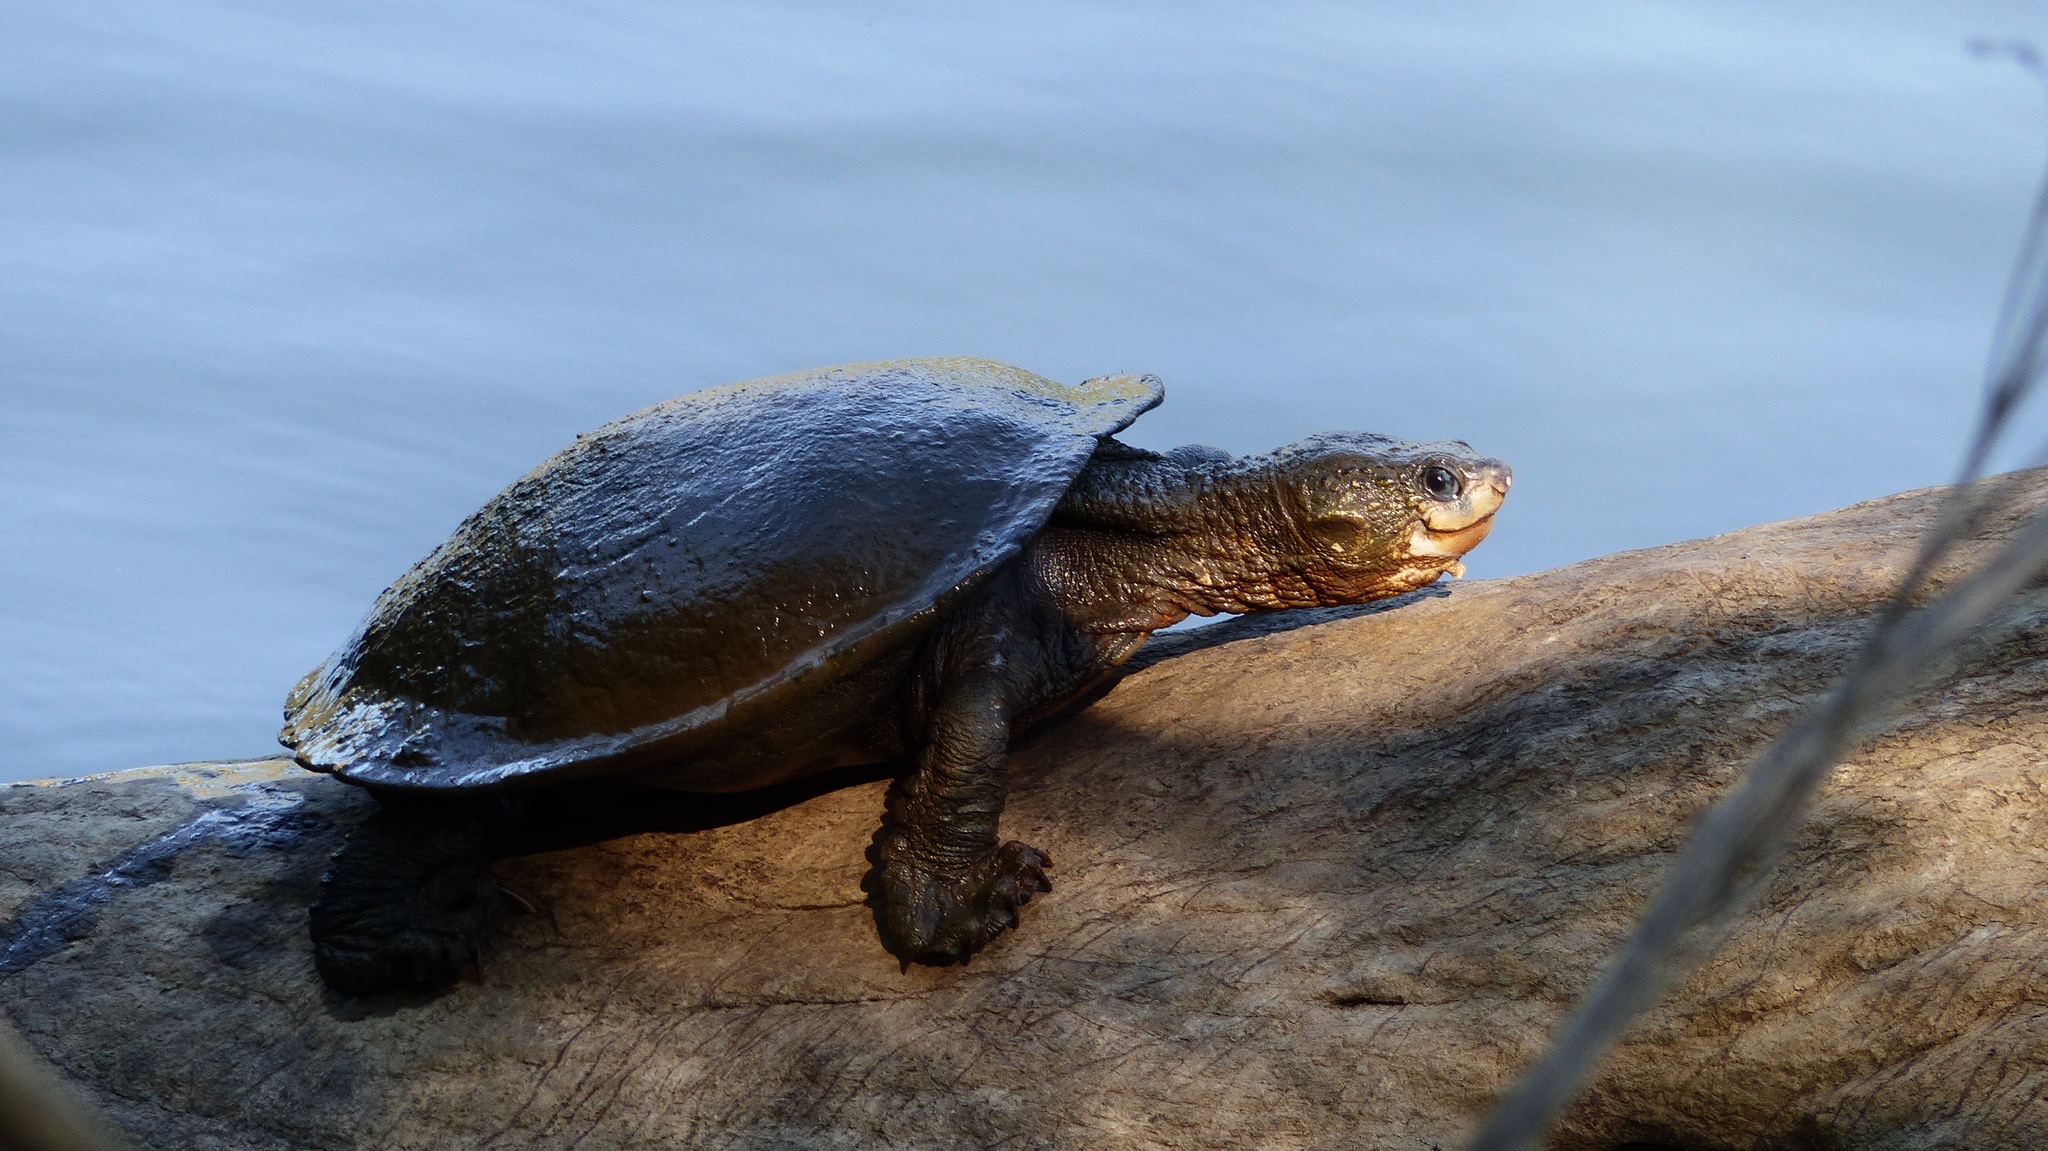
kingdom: Animalia
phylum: Chordata
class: Testudines
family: Chelidae
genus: Elseya
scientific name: Elseya albagula
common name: White-throated snapping turtle
